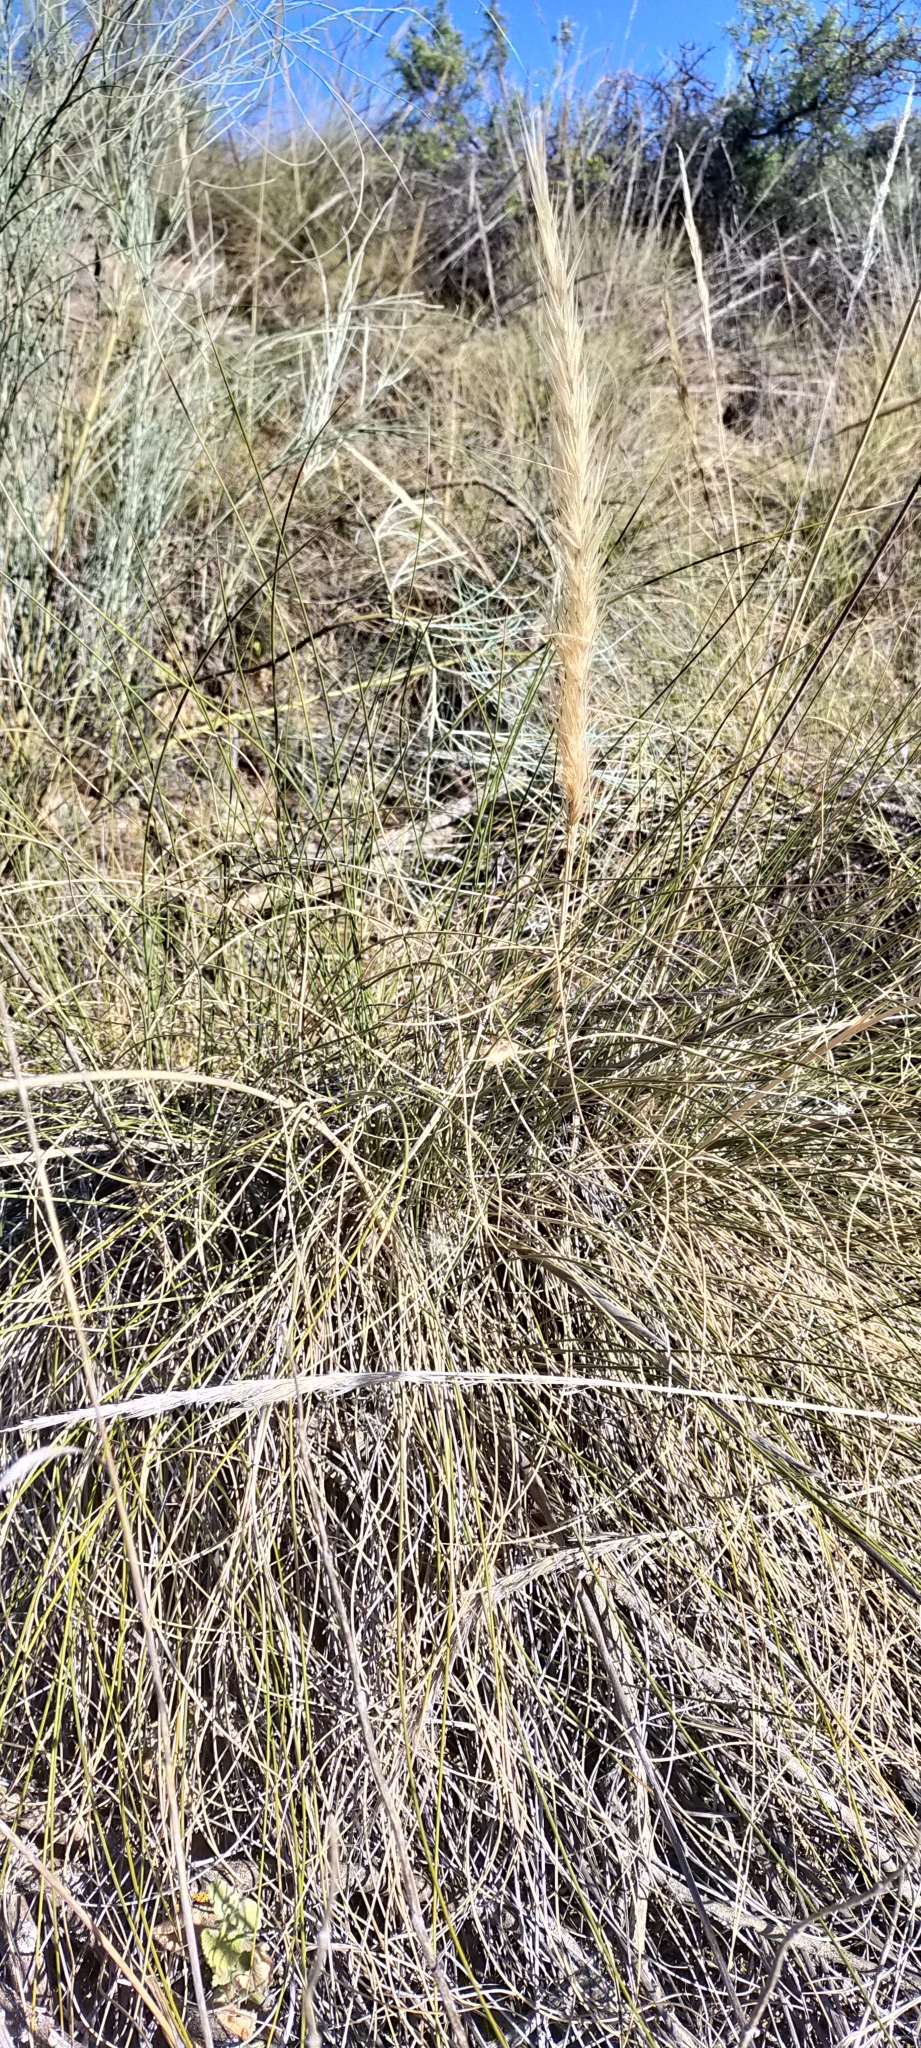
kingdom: Plantae
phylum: Tracheophyta
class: Liliopsida
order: Poales
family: Poaceae
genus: Macrochloa
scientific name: Macrochloa tenacissima
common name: Alfa grass
